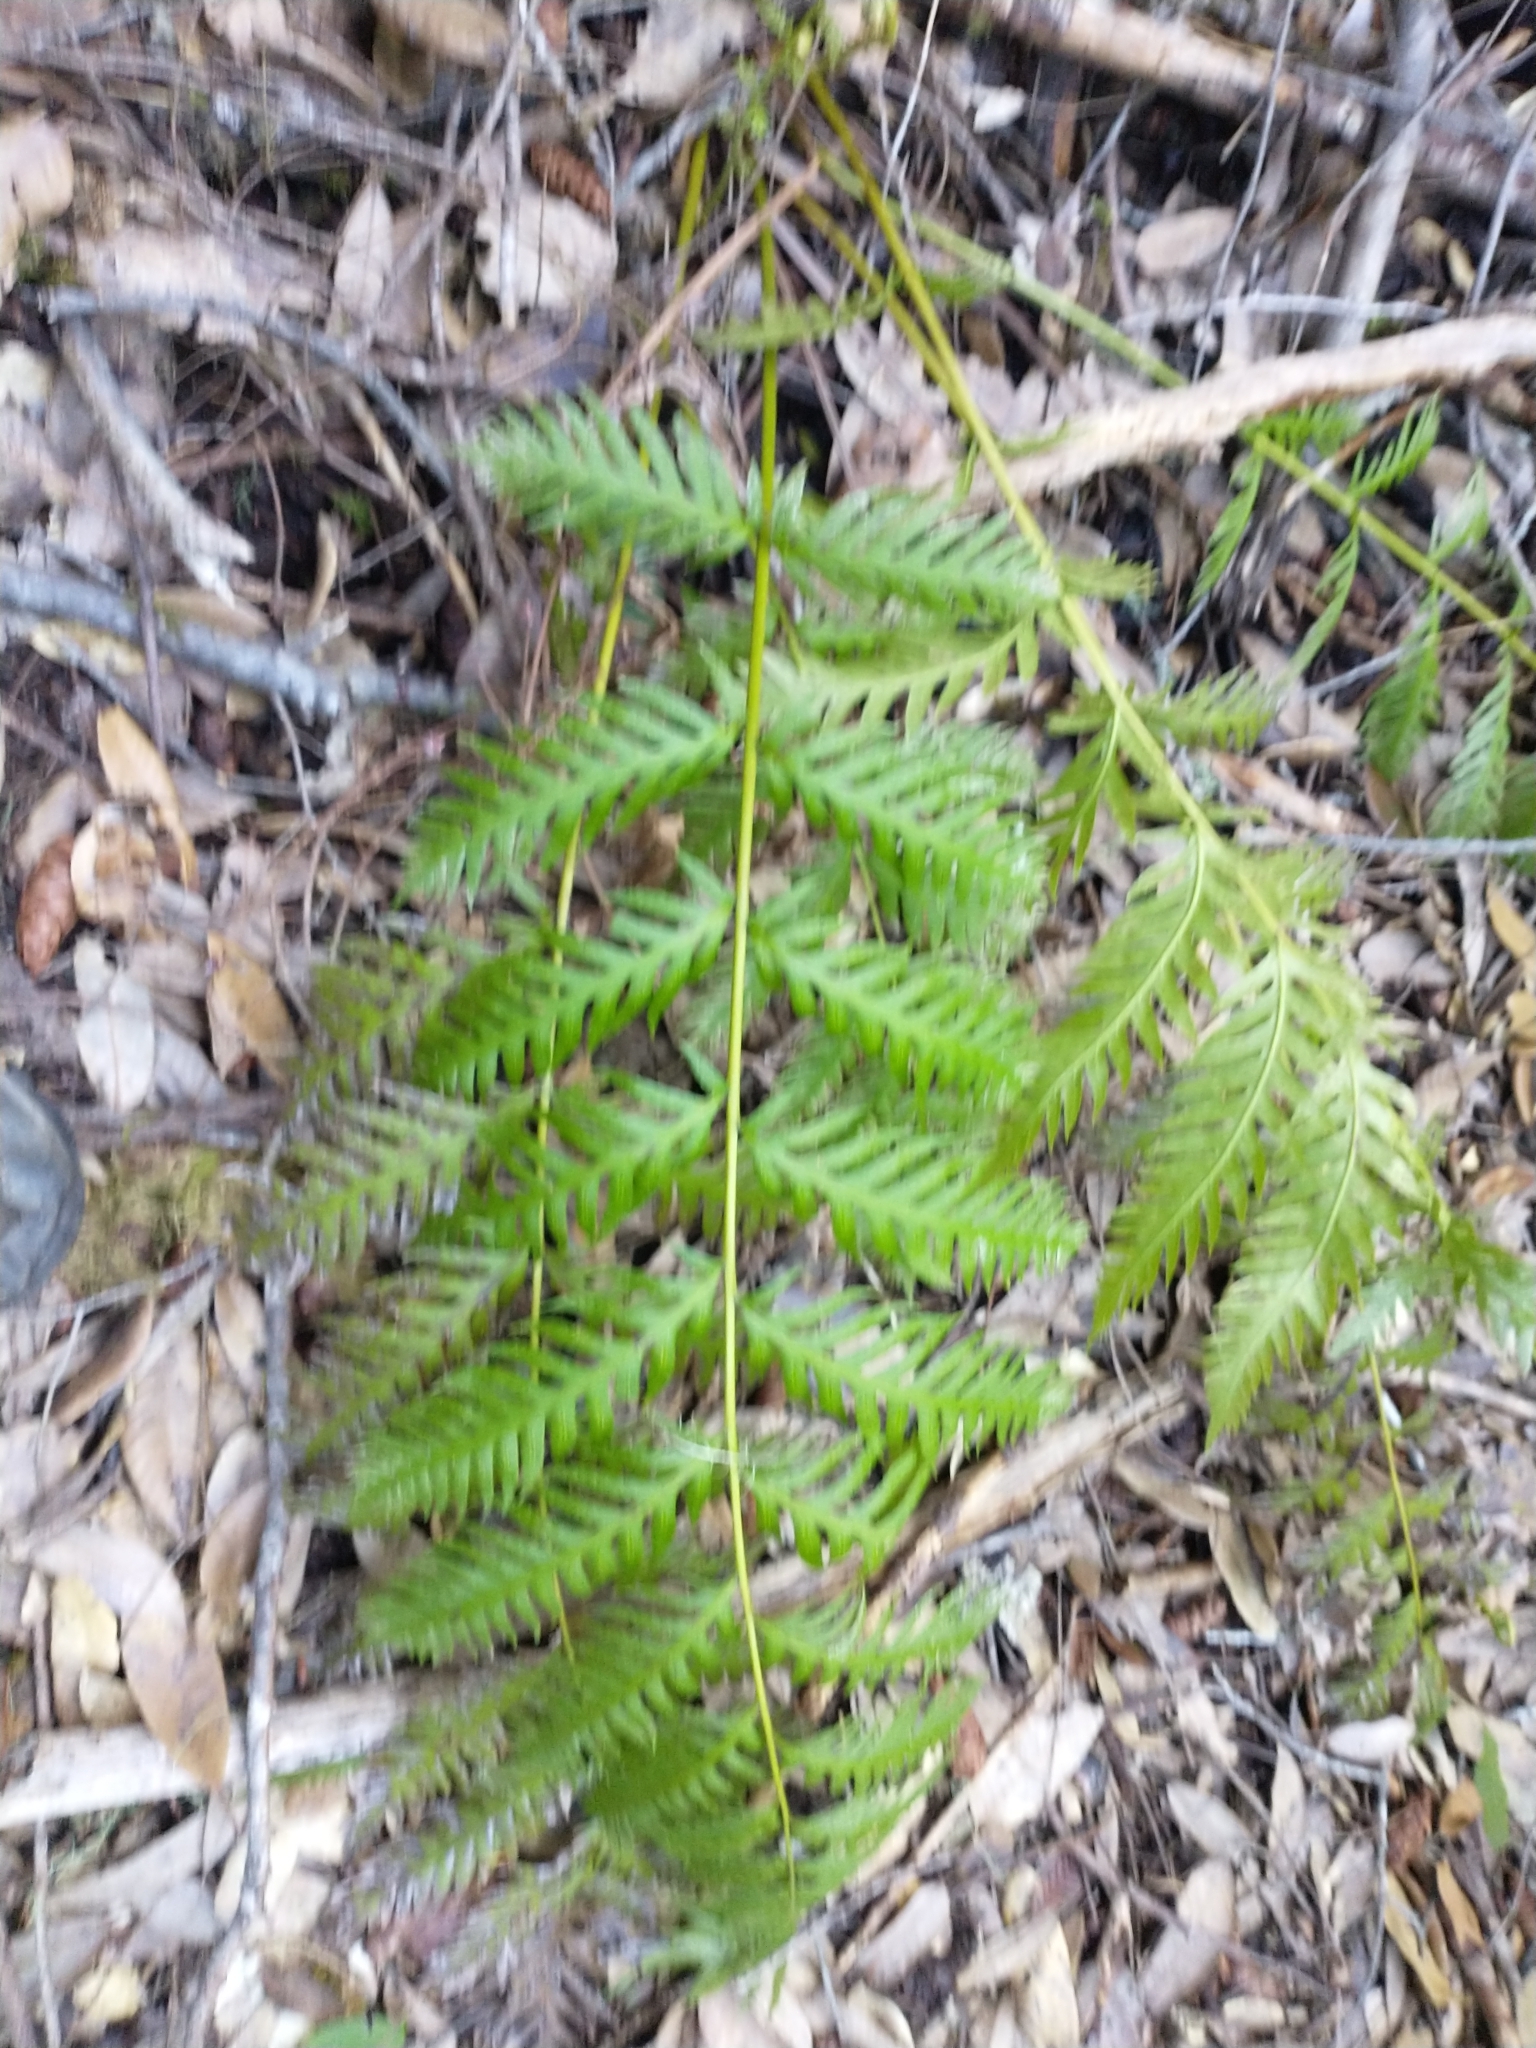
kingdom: Plantae
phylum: Tracheophyta
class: Polypodiopsida
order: Polypodiales
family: Blechnaceae
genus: Woodwardia
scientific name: Woodwardia fimbriata
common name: Giant chain fern
